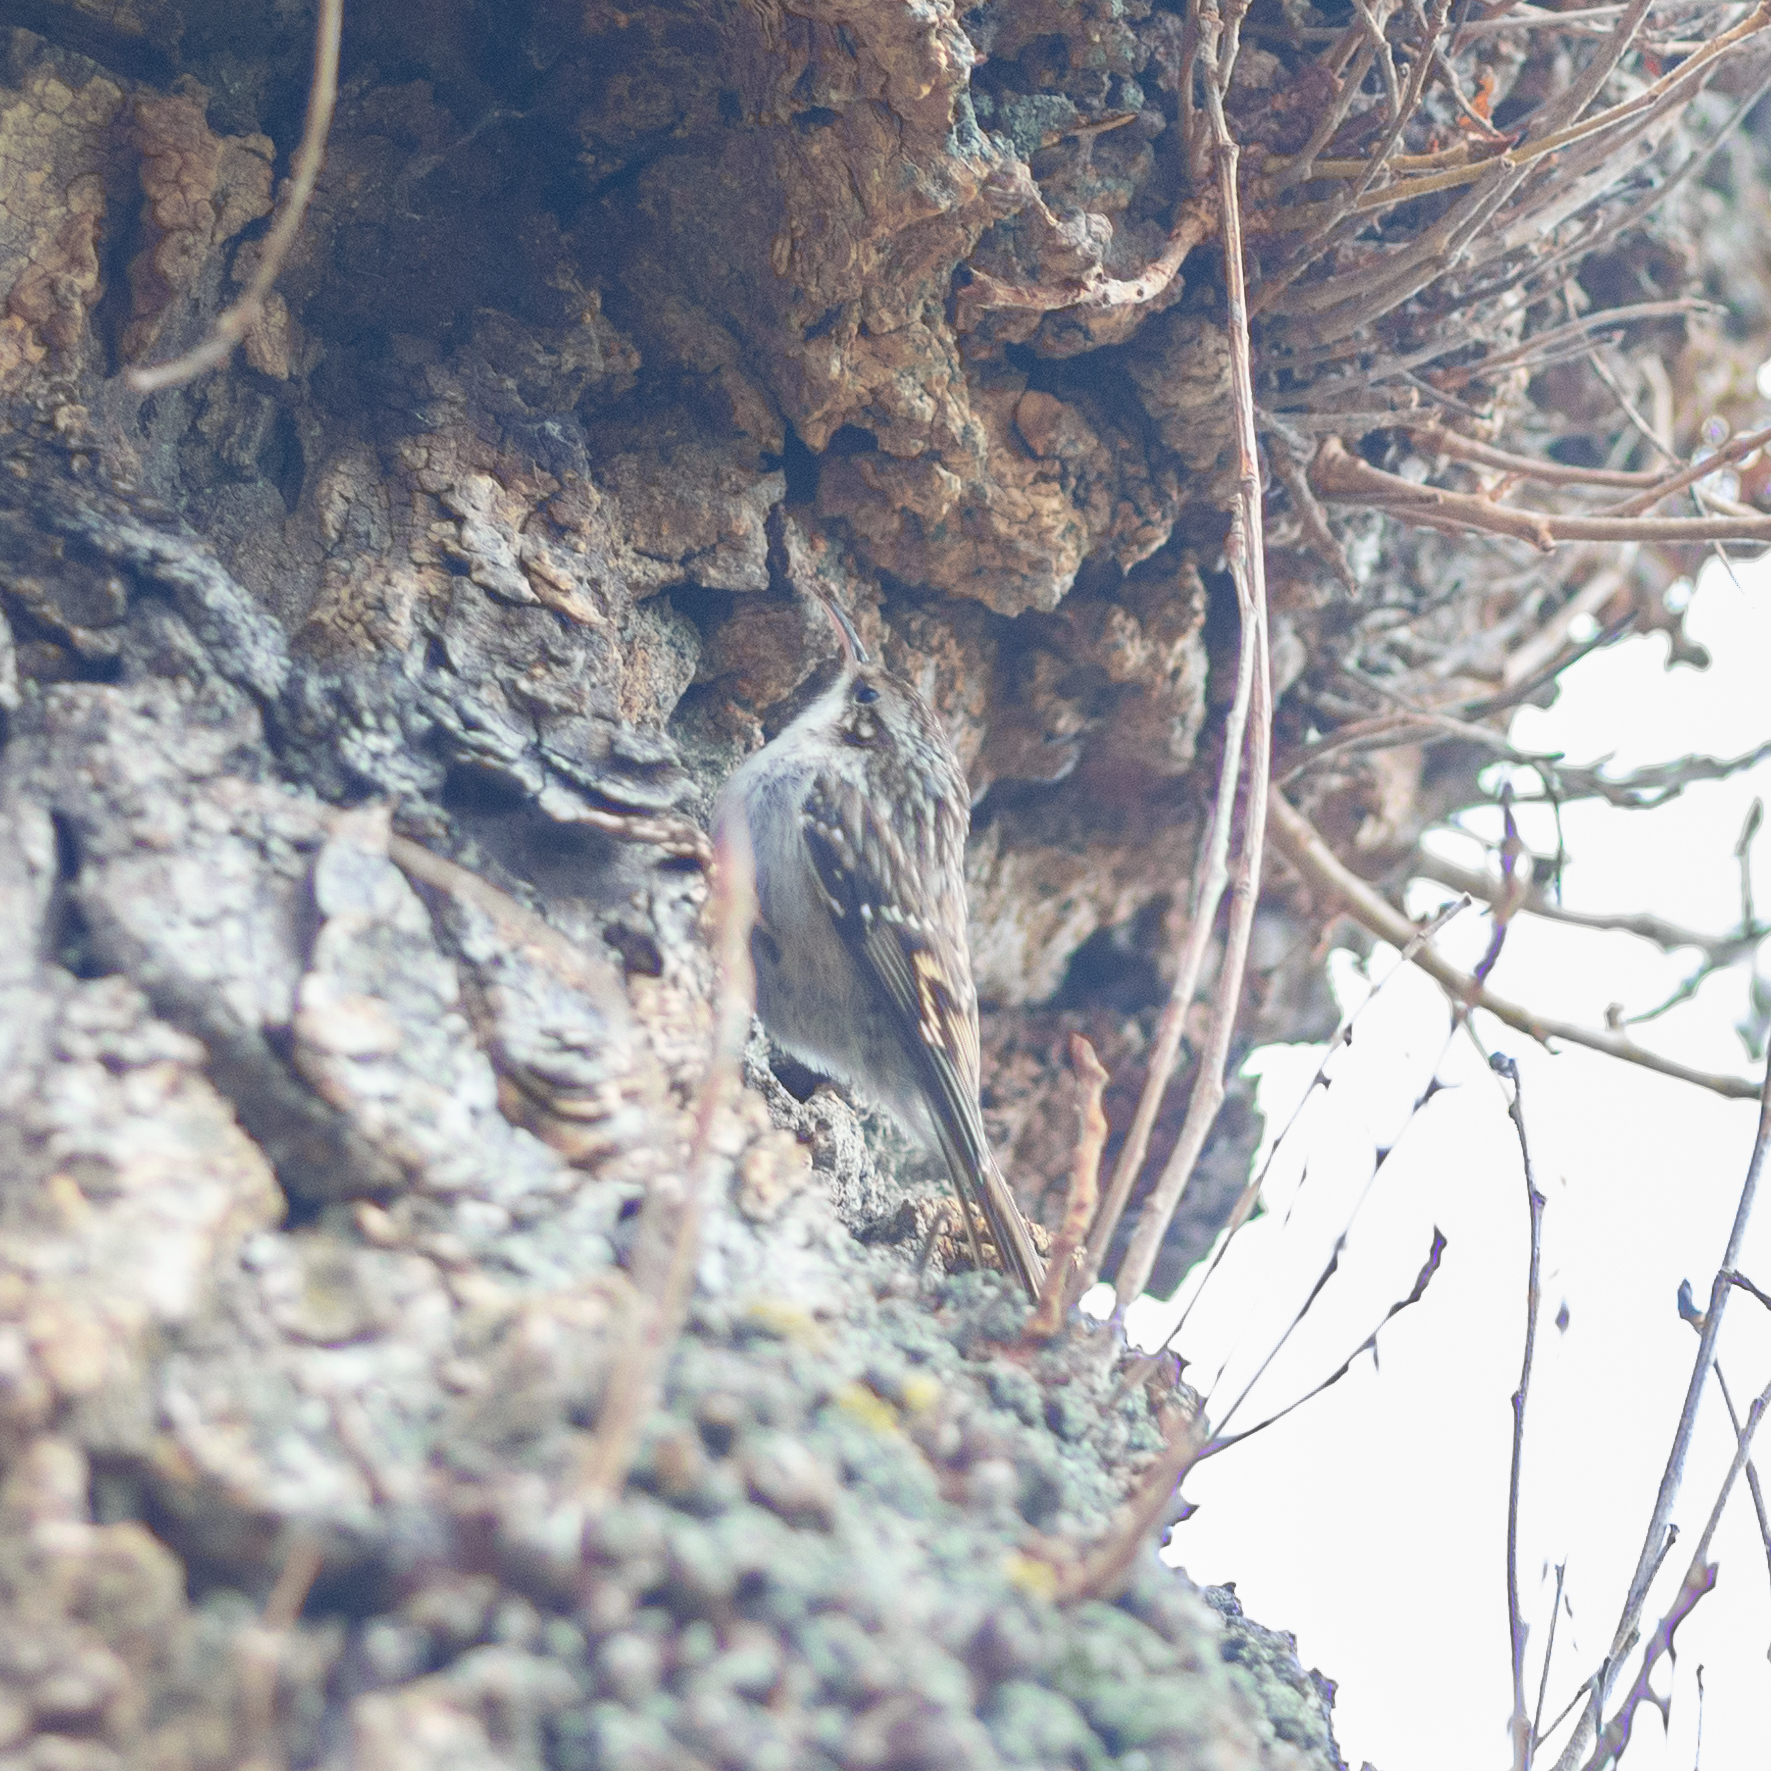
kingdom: Animalia
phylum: Chordata
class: Aves
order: Passeriformes
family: Certhiidae
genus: Certhia
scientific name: Certhia brachydactyla
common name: Short-toed treecreeper
